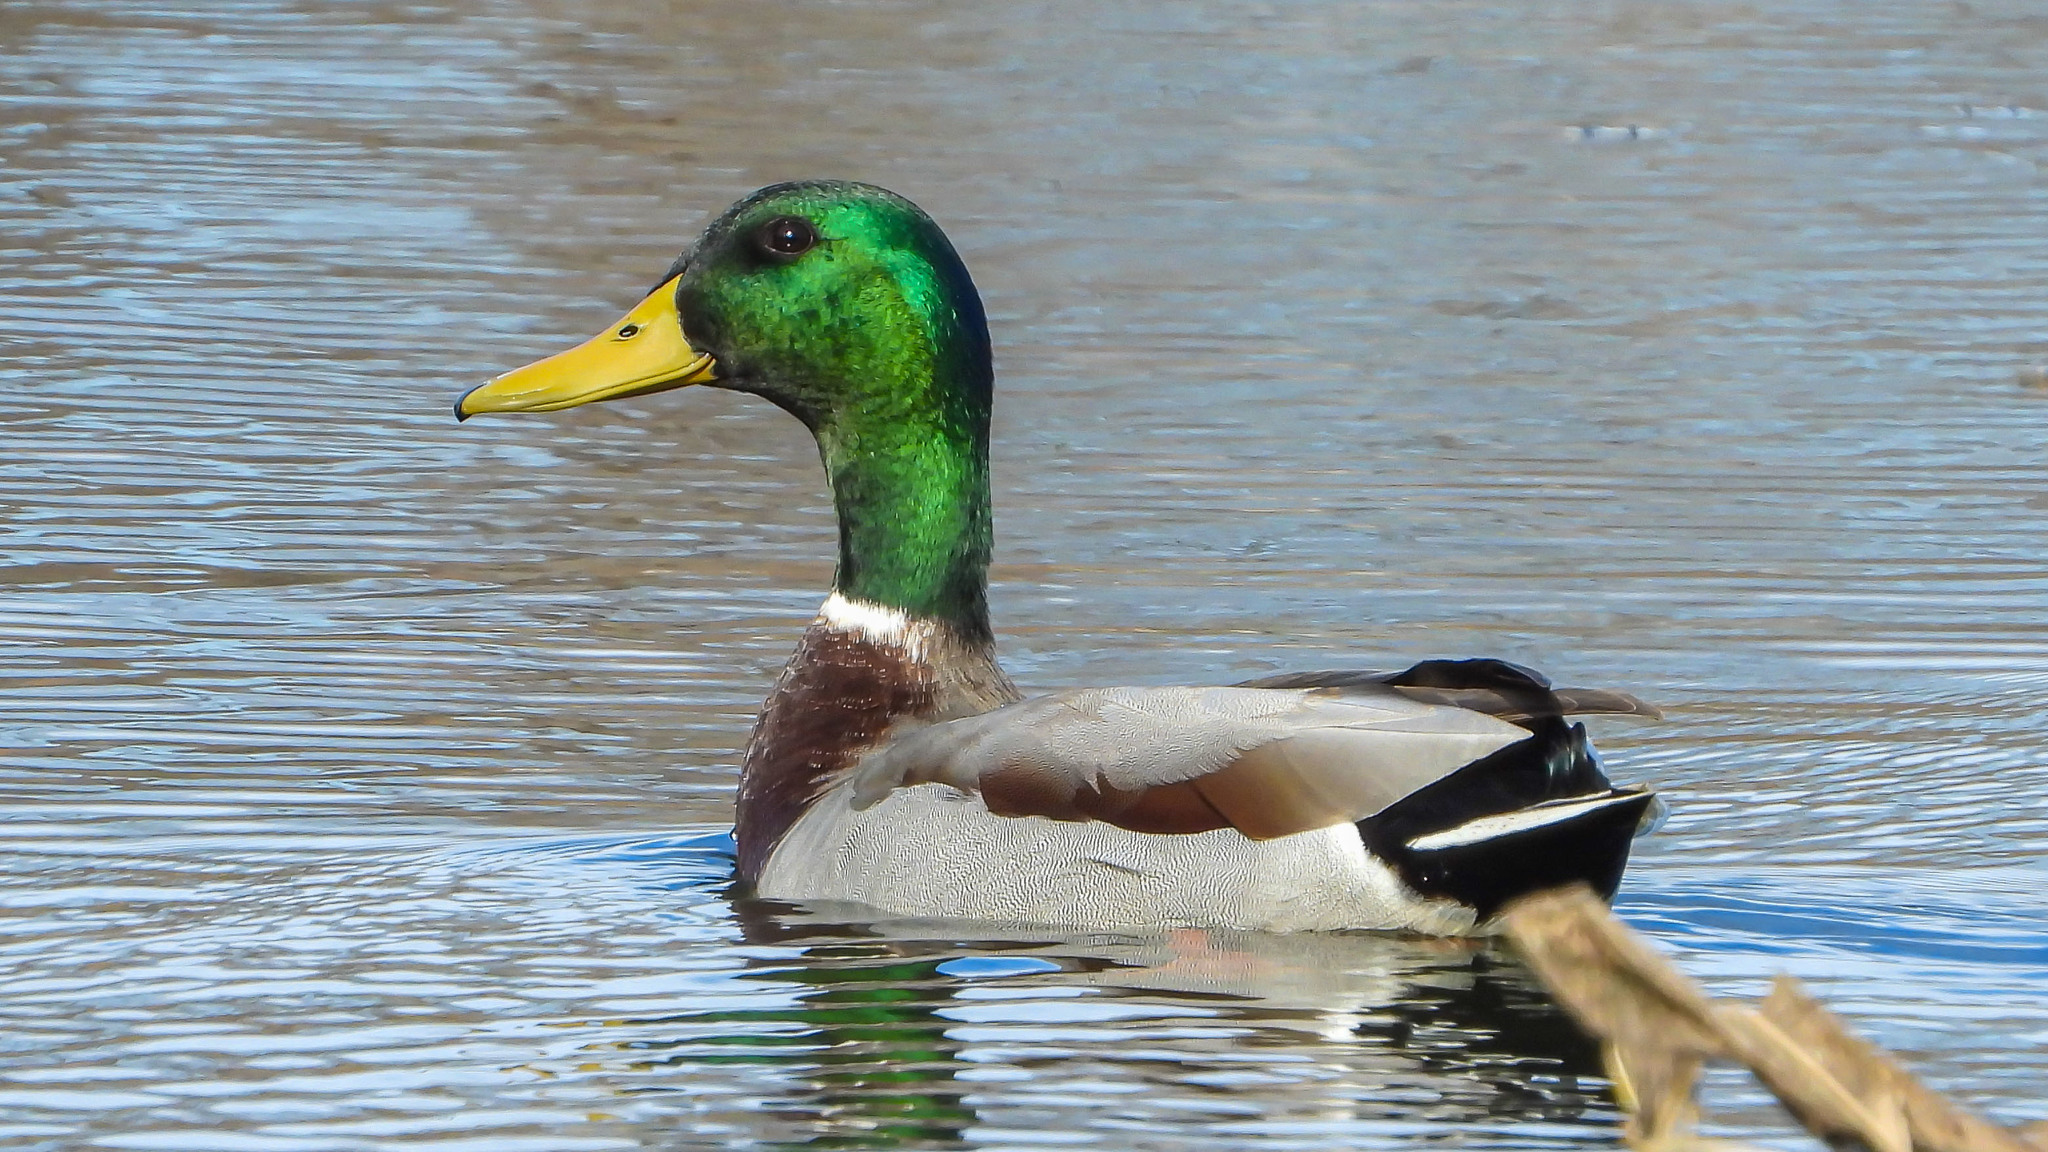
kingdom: Animalia
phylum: Chordata
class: Aves
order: Anseriformes
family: Anatidae
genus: Anas
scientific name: Anas platyrhynchos
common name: Mallard
